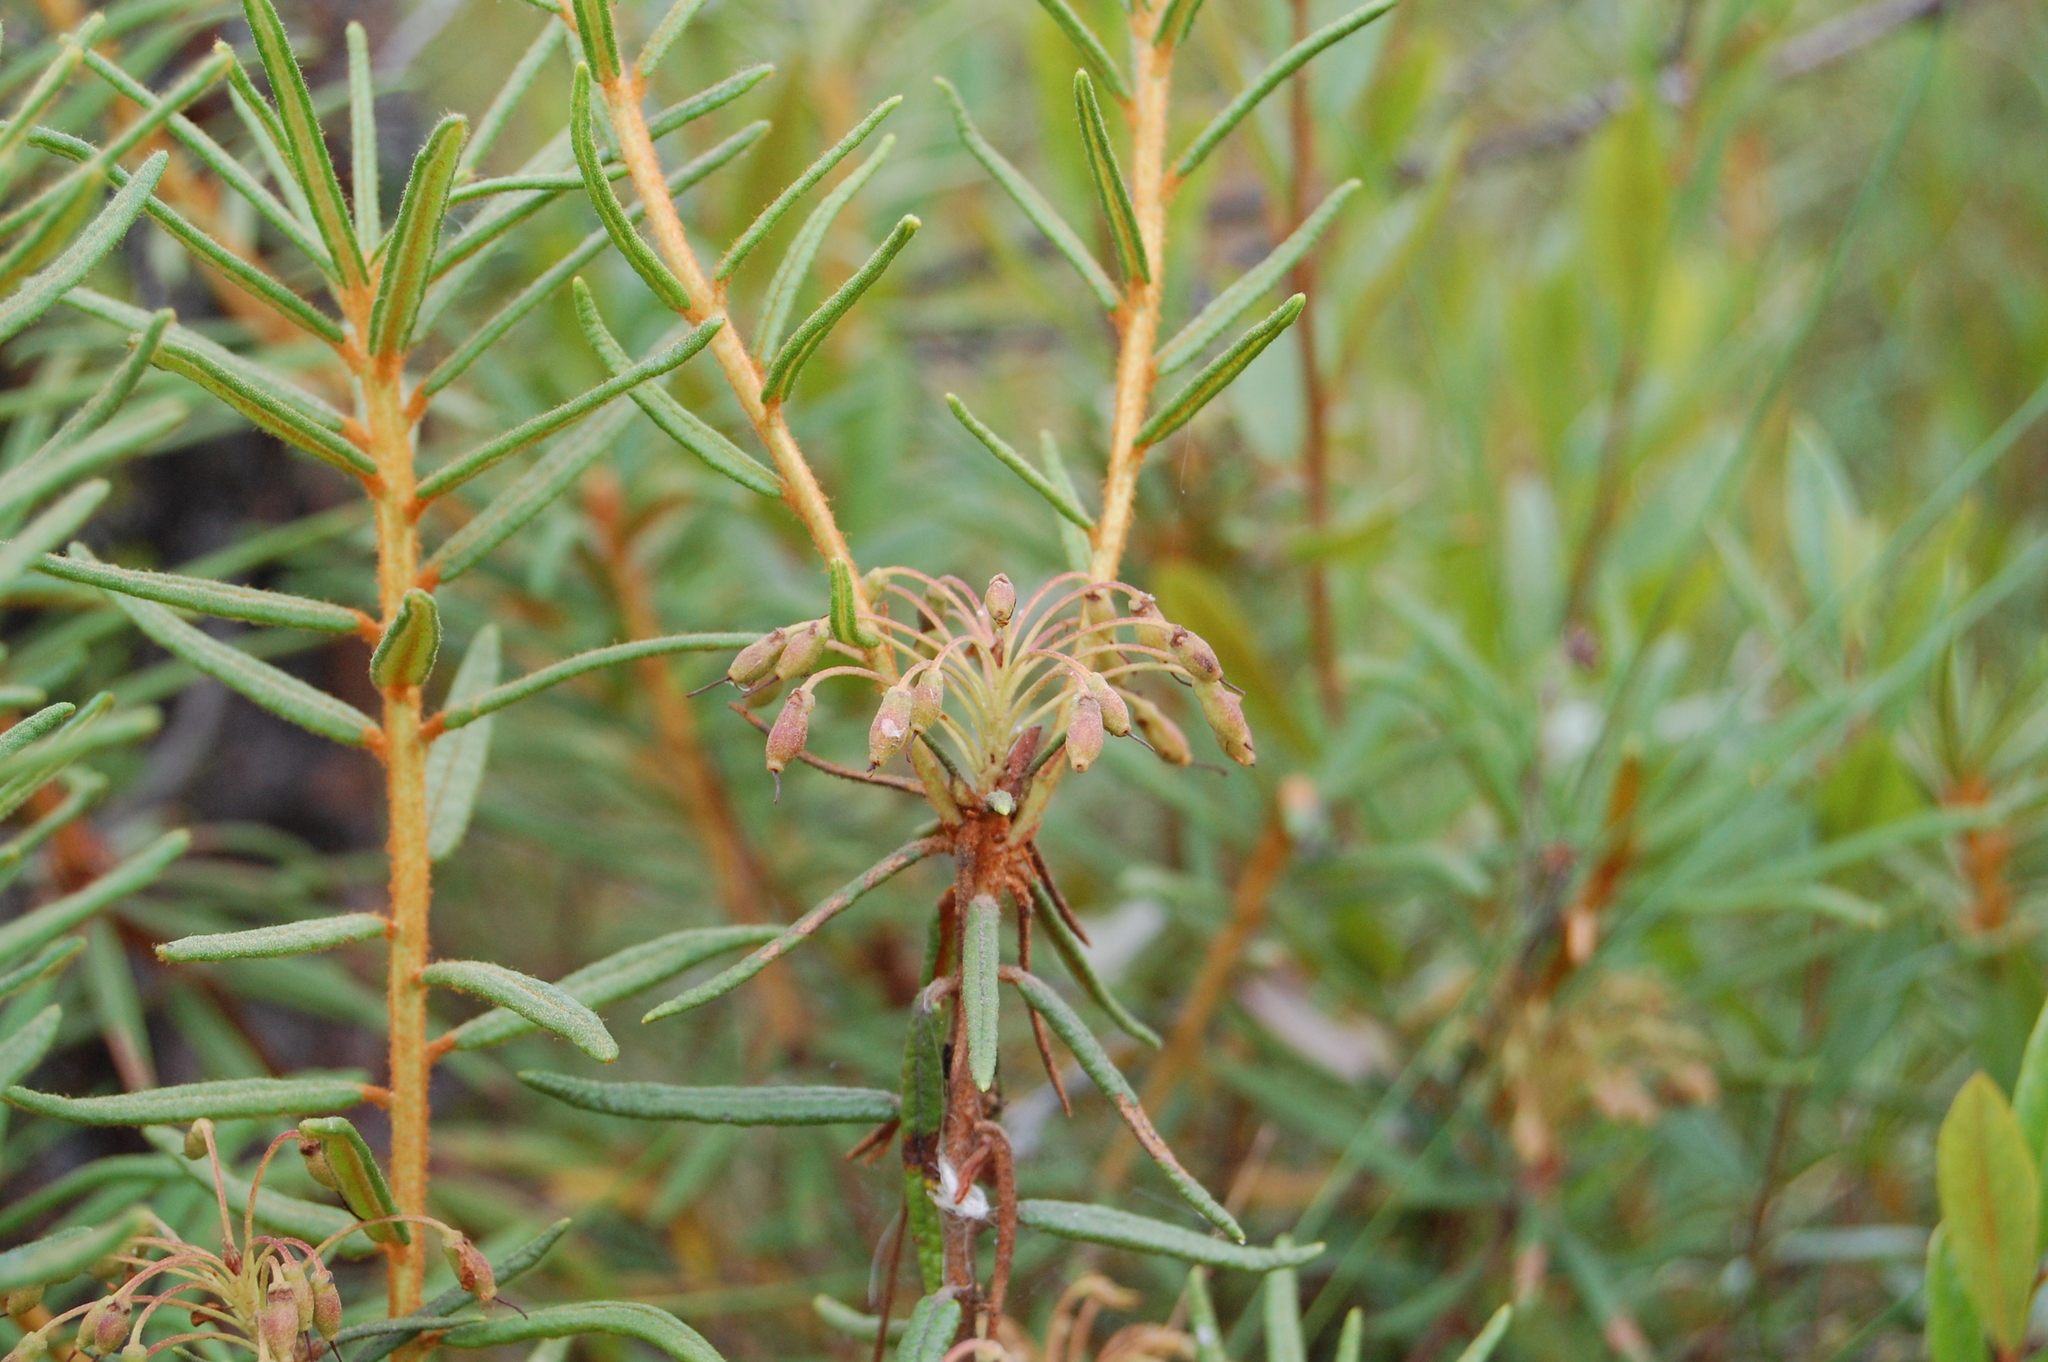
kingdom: Plantae
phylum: Tracheophyta
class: Magnoliopsida
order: Ericales
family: Ericaceae
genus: Rhododendron
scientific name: Rhododendron tomentosum
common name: Marsh labrador tea
